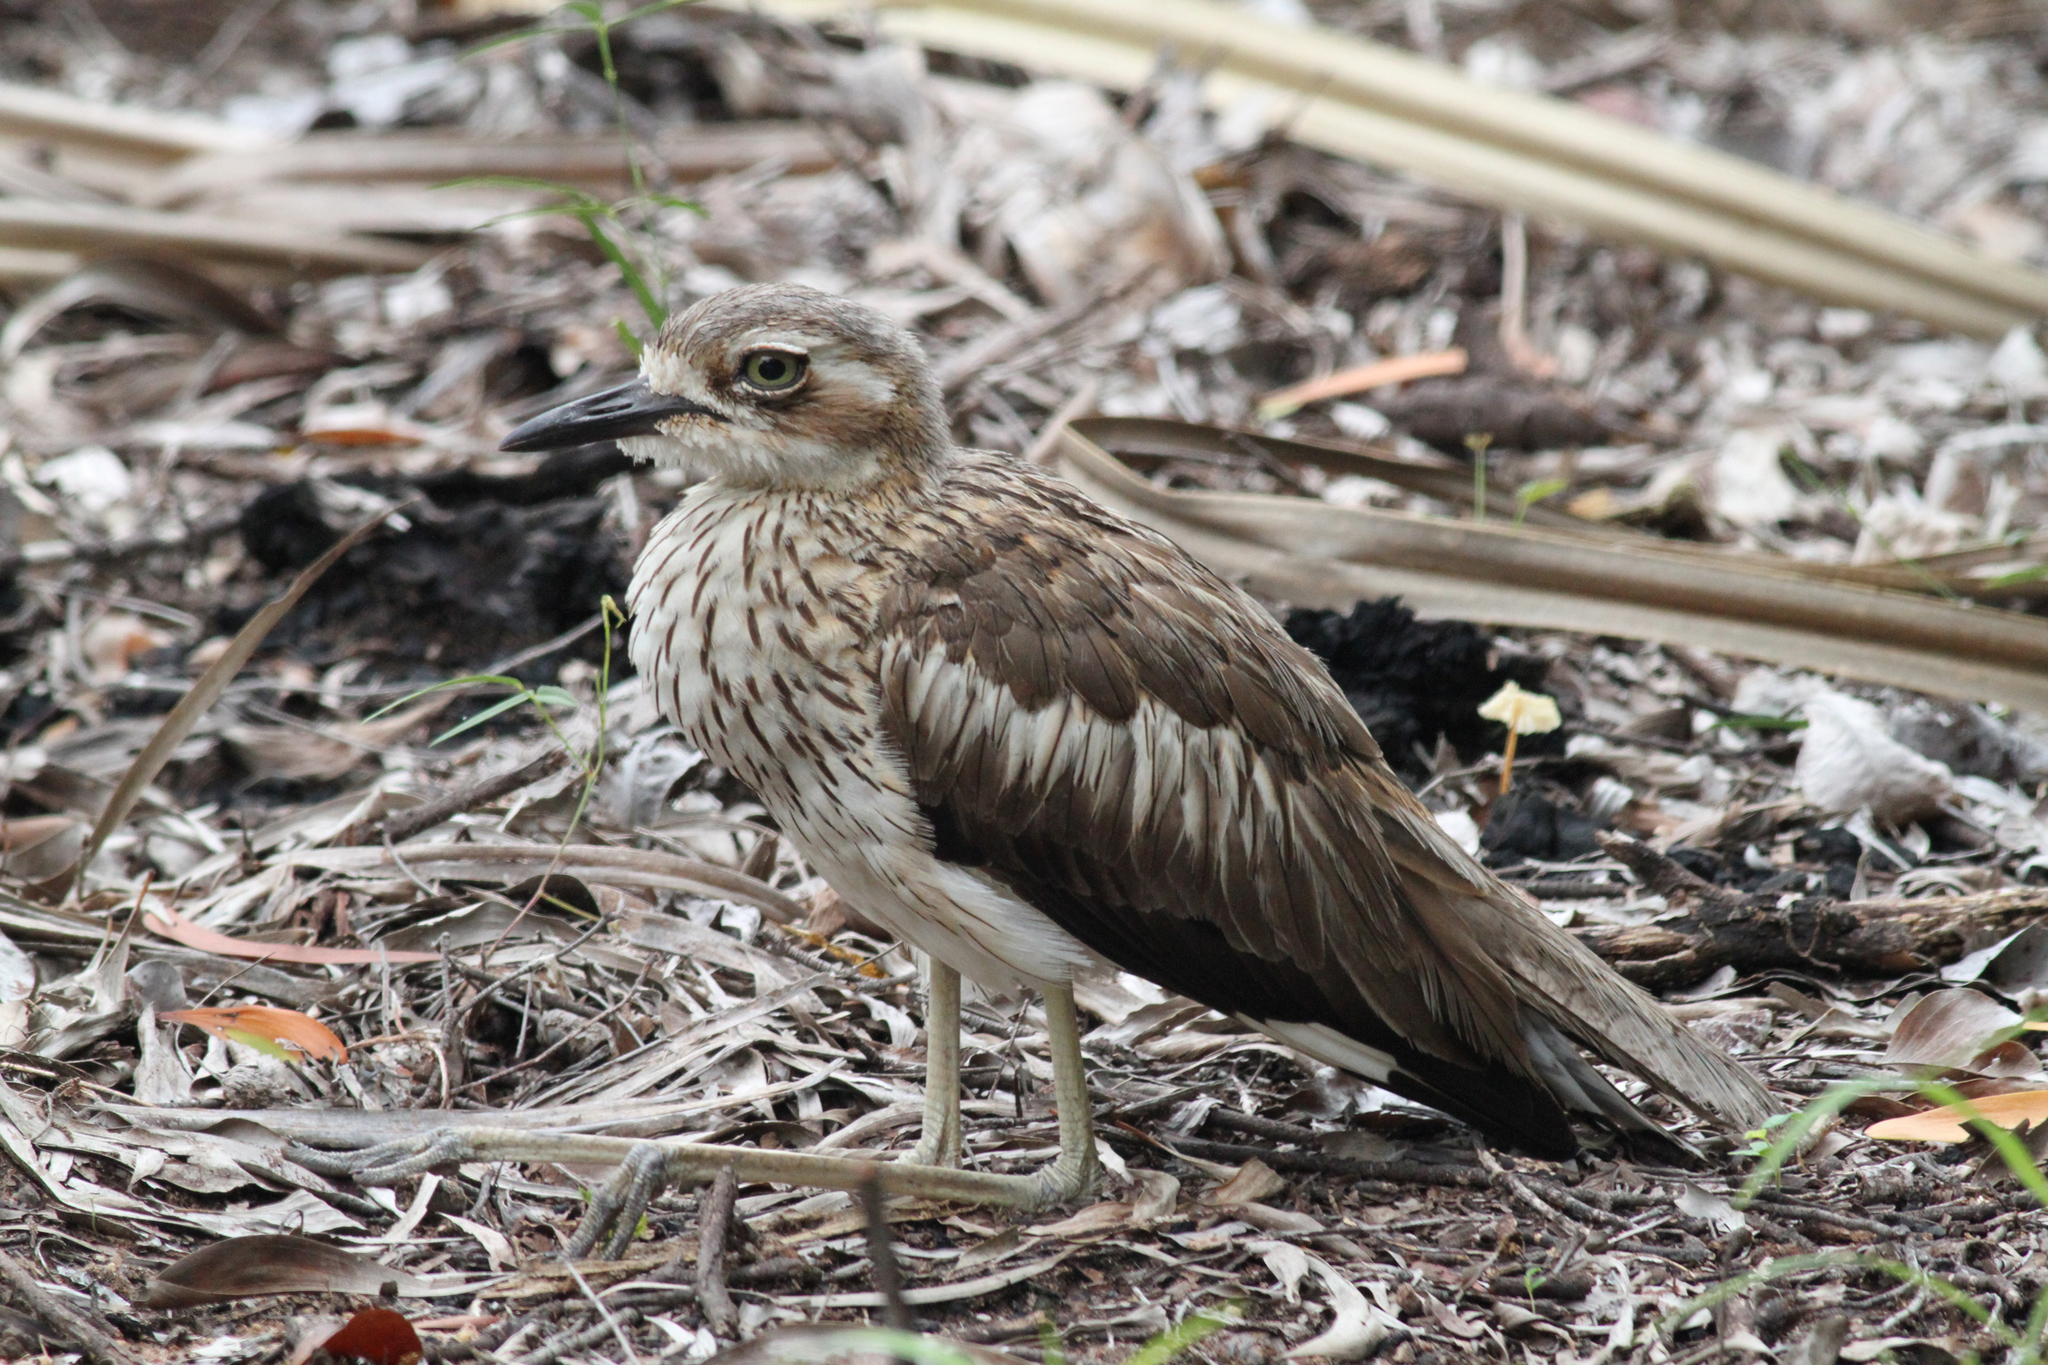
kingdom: Animalia
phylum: Chordata
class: Aves
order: Charadriiformes
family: Burhinidae
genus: Burhinus
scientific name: Burhinus grallarius
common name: Bush stone-curlew
